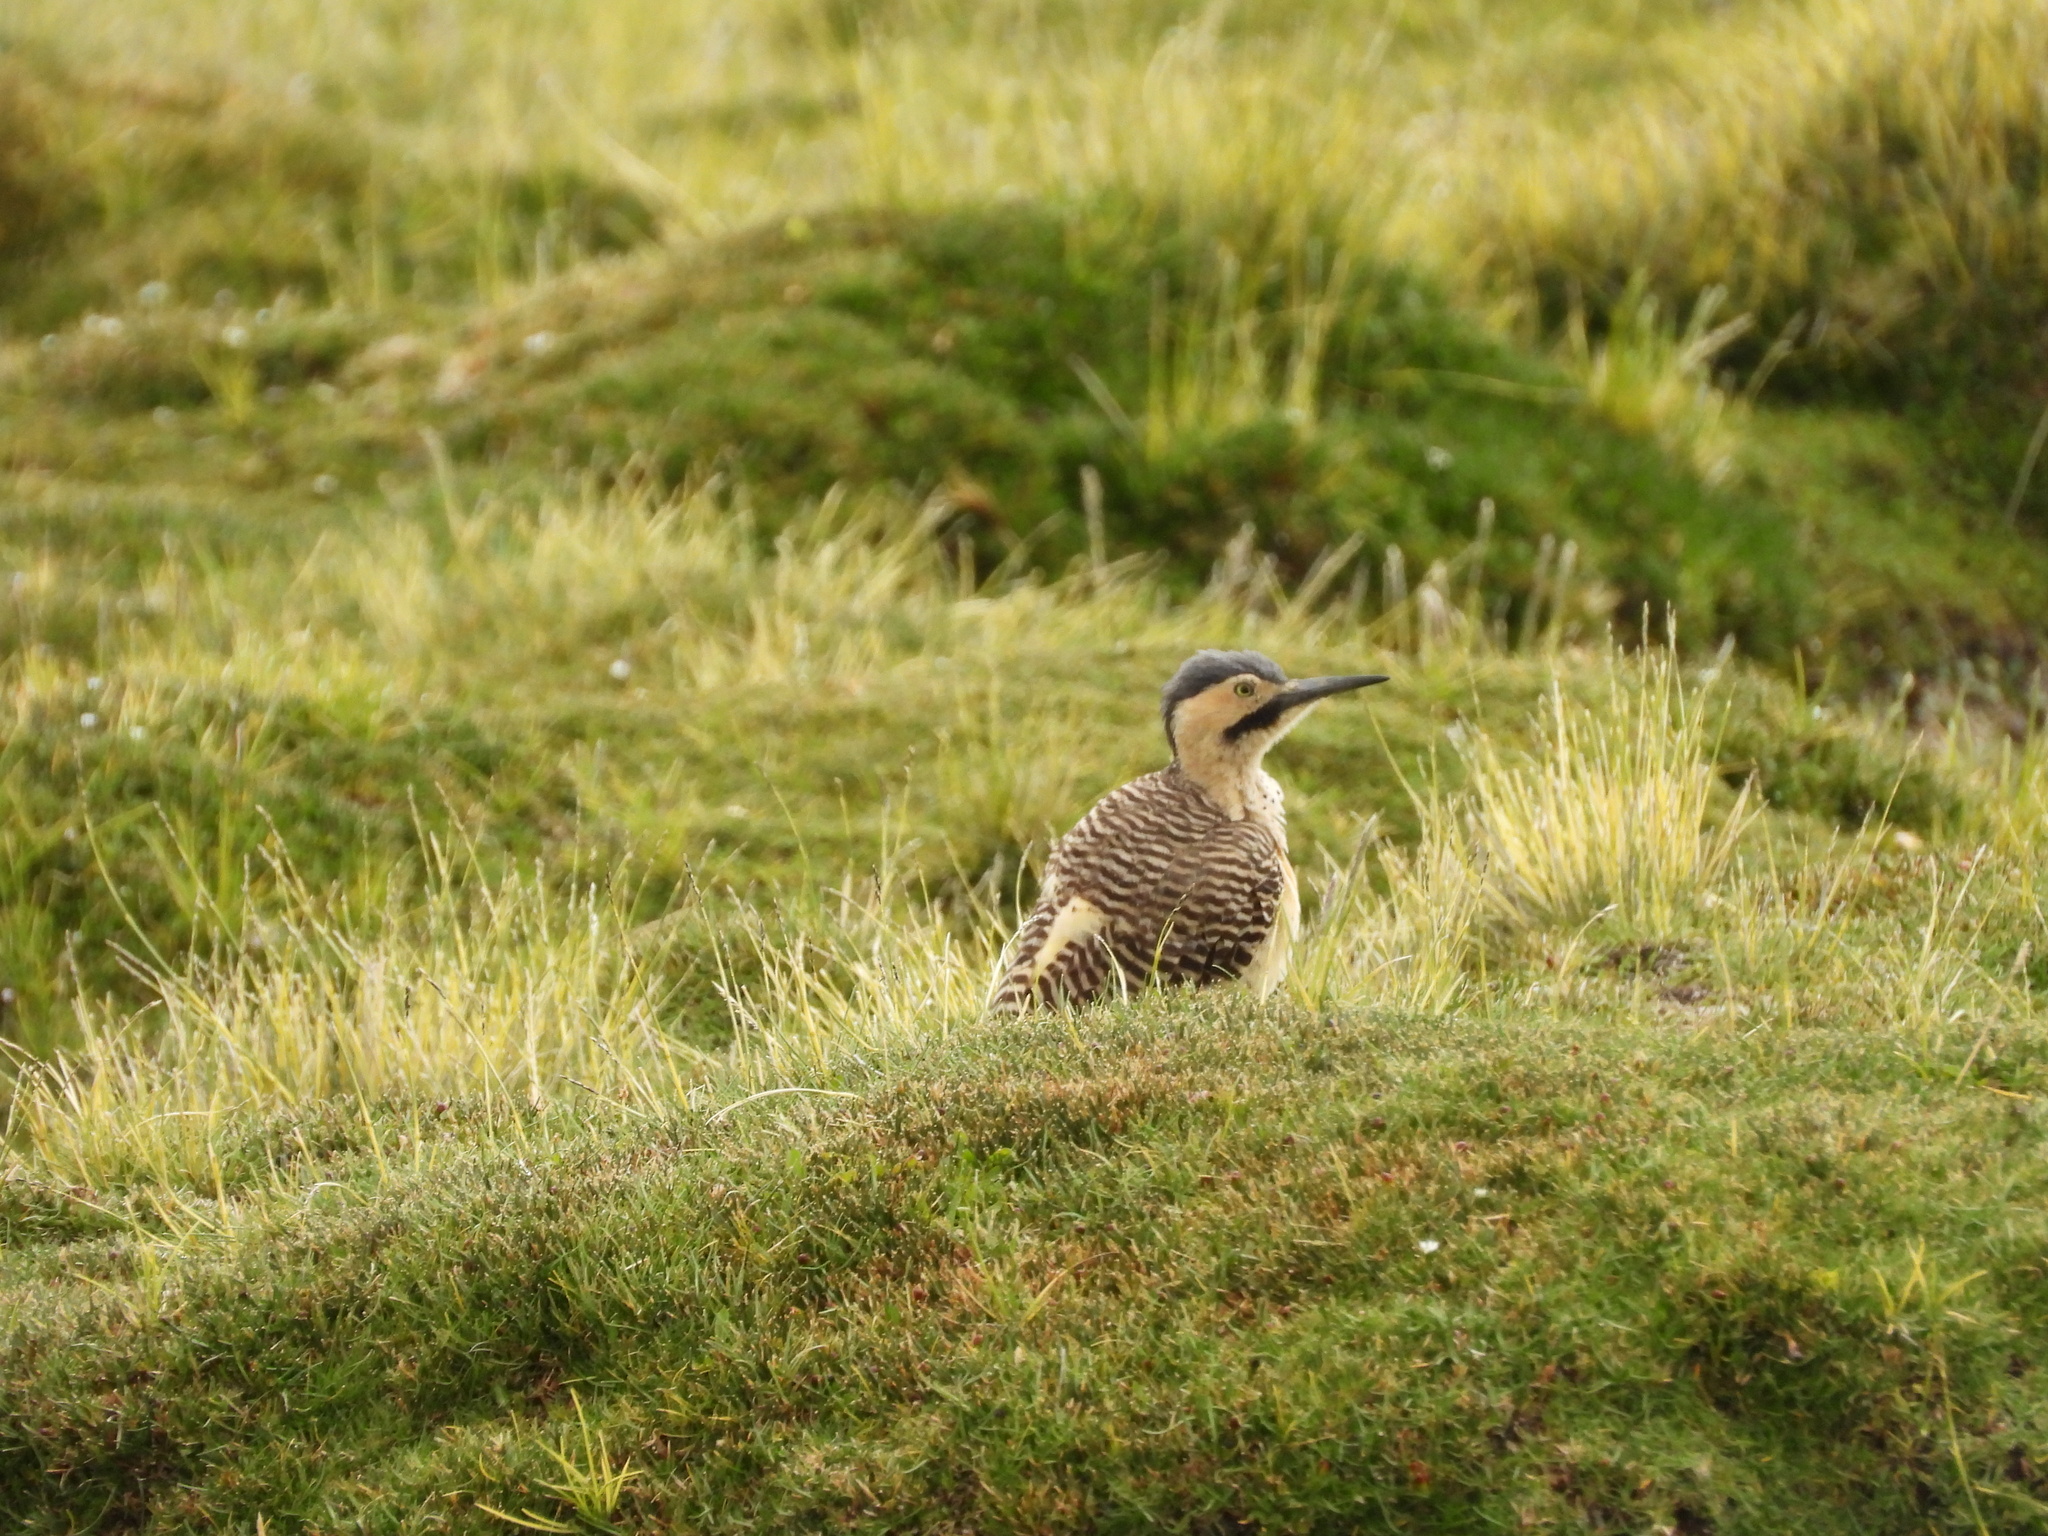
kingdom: Animalia
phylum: Chordata
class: Aves
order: Piciformes
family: Picidae
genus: Colaptes
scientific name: Colaptes rupicola
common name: Andean flicker
